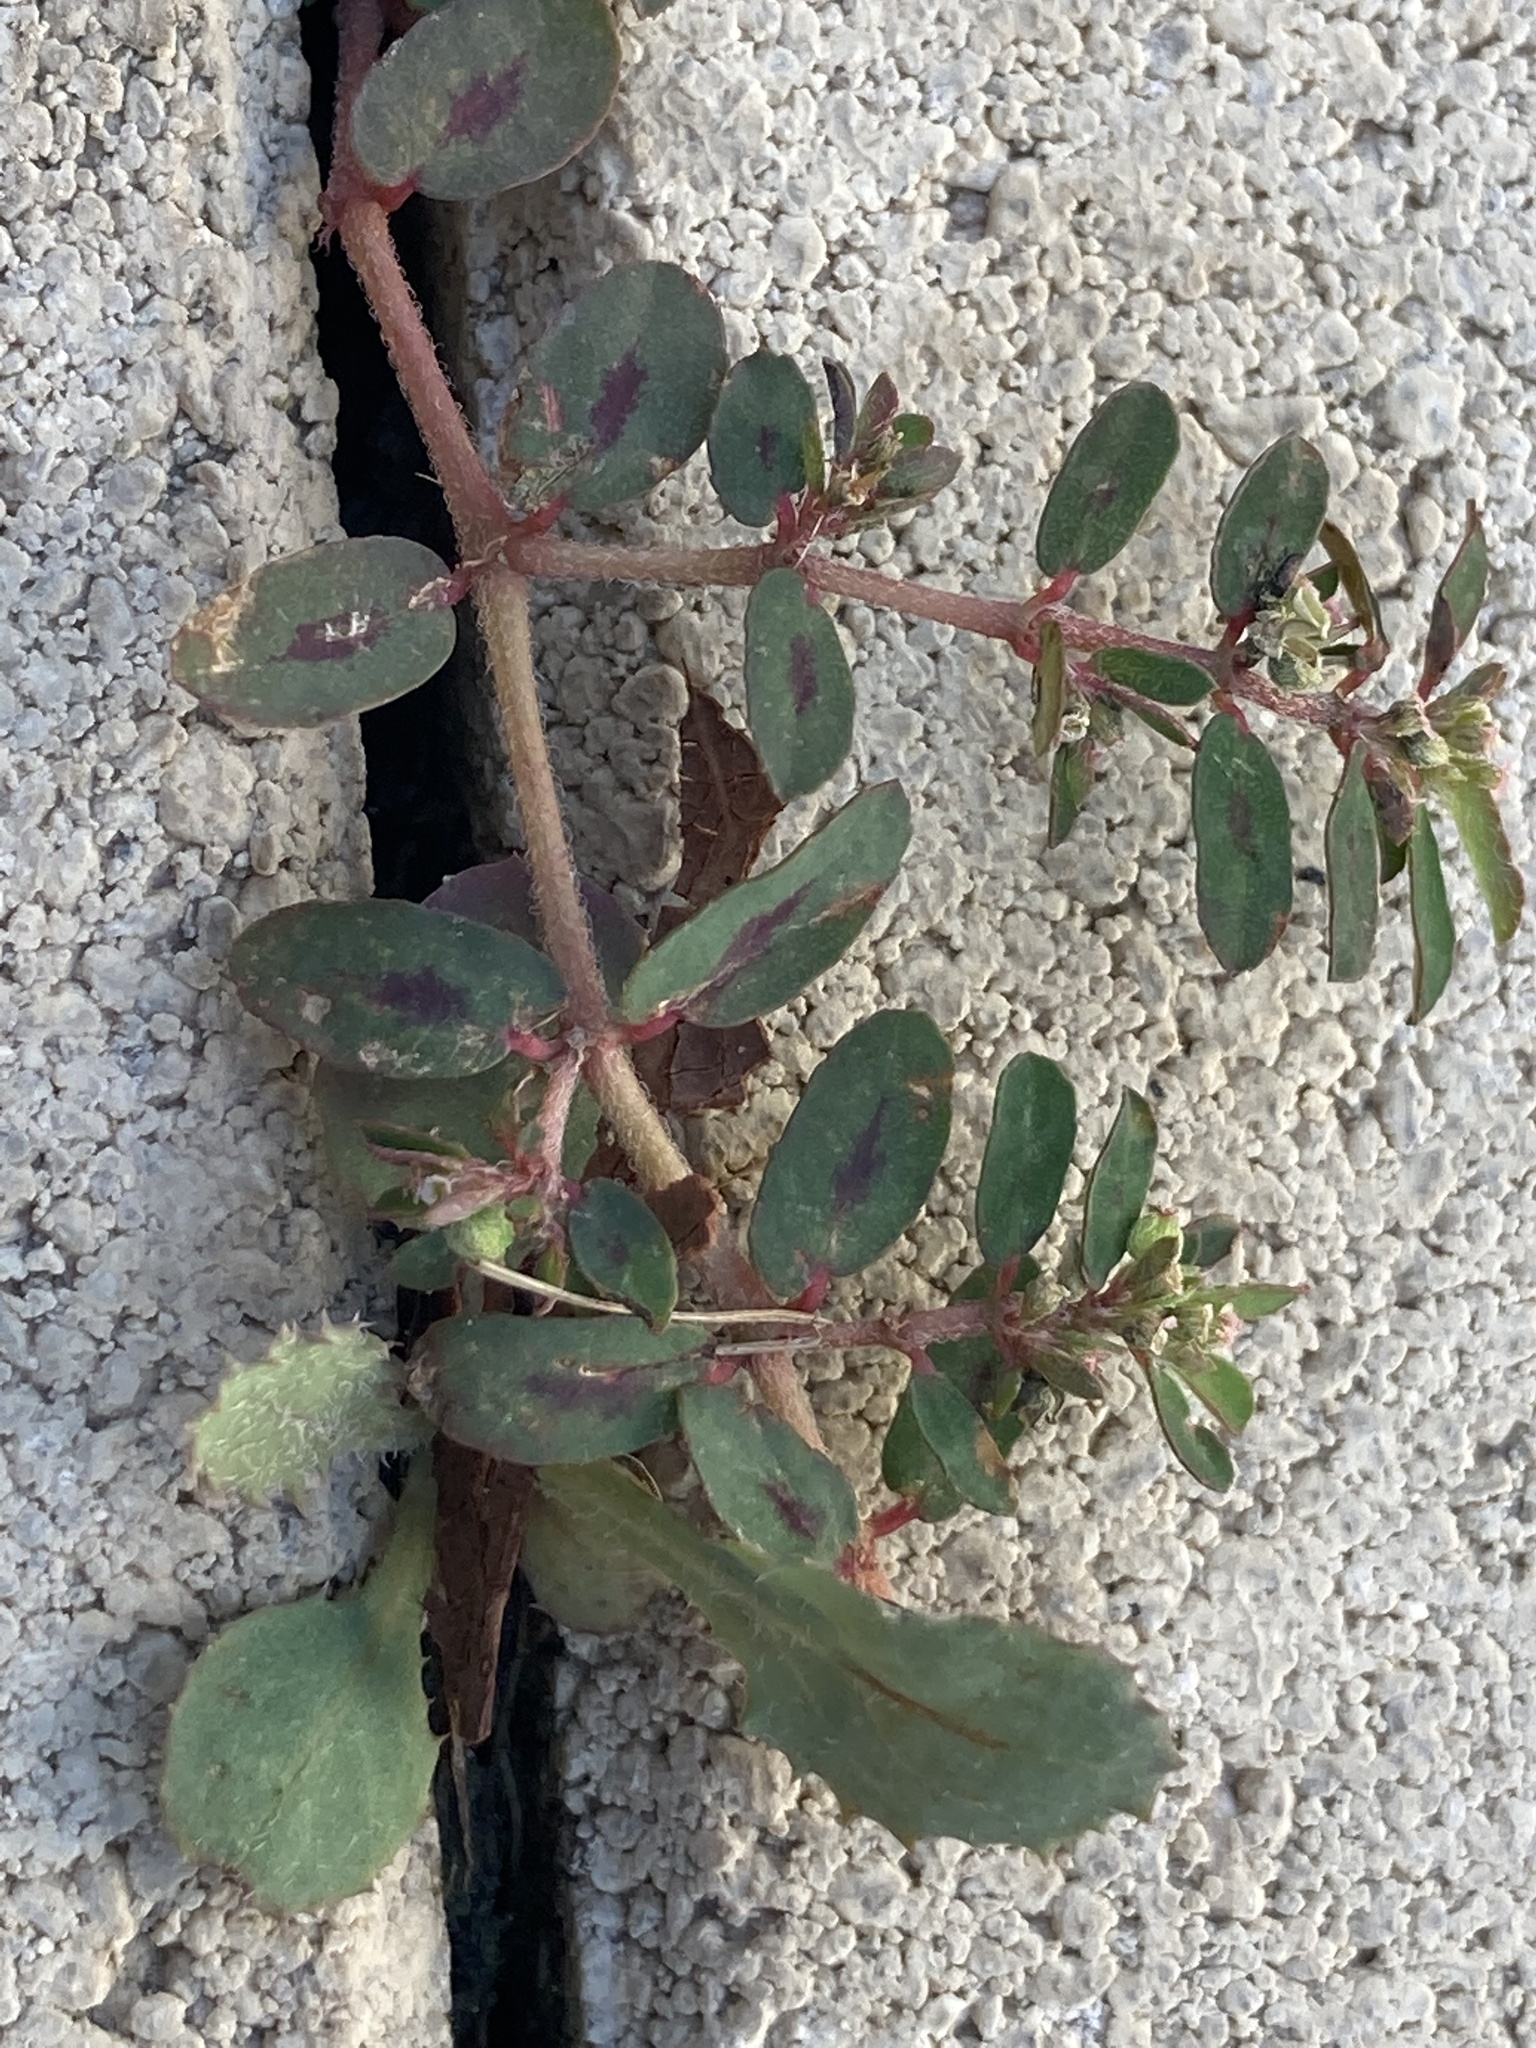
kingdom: Plantae
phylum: Tracheophyta
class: Magnoliopsida
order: Malpighiales
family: Euphorbiaceae
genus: Euphorbia
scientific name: Euphorbia maculata
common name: Spotted spurge
